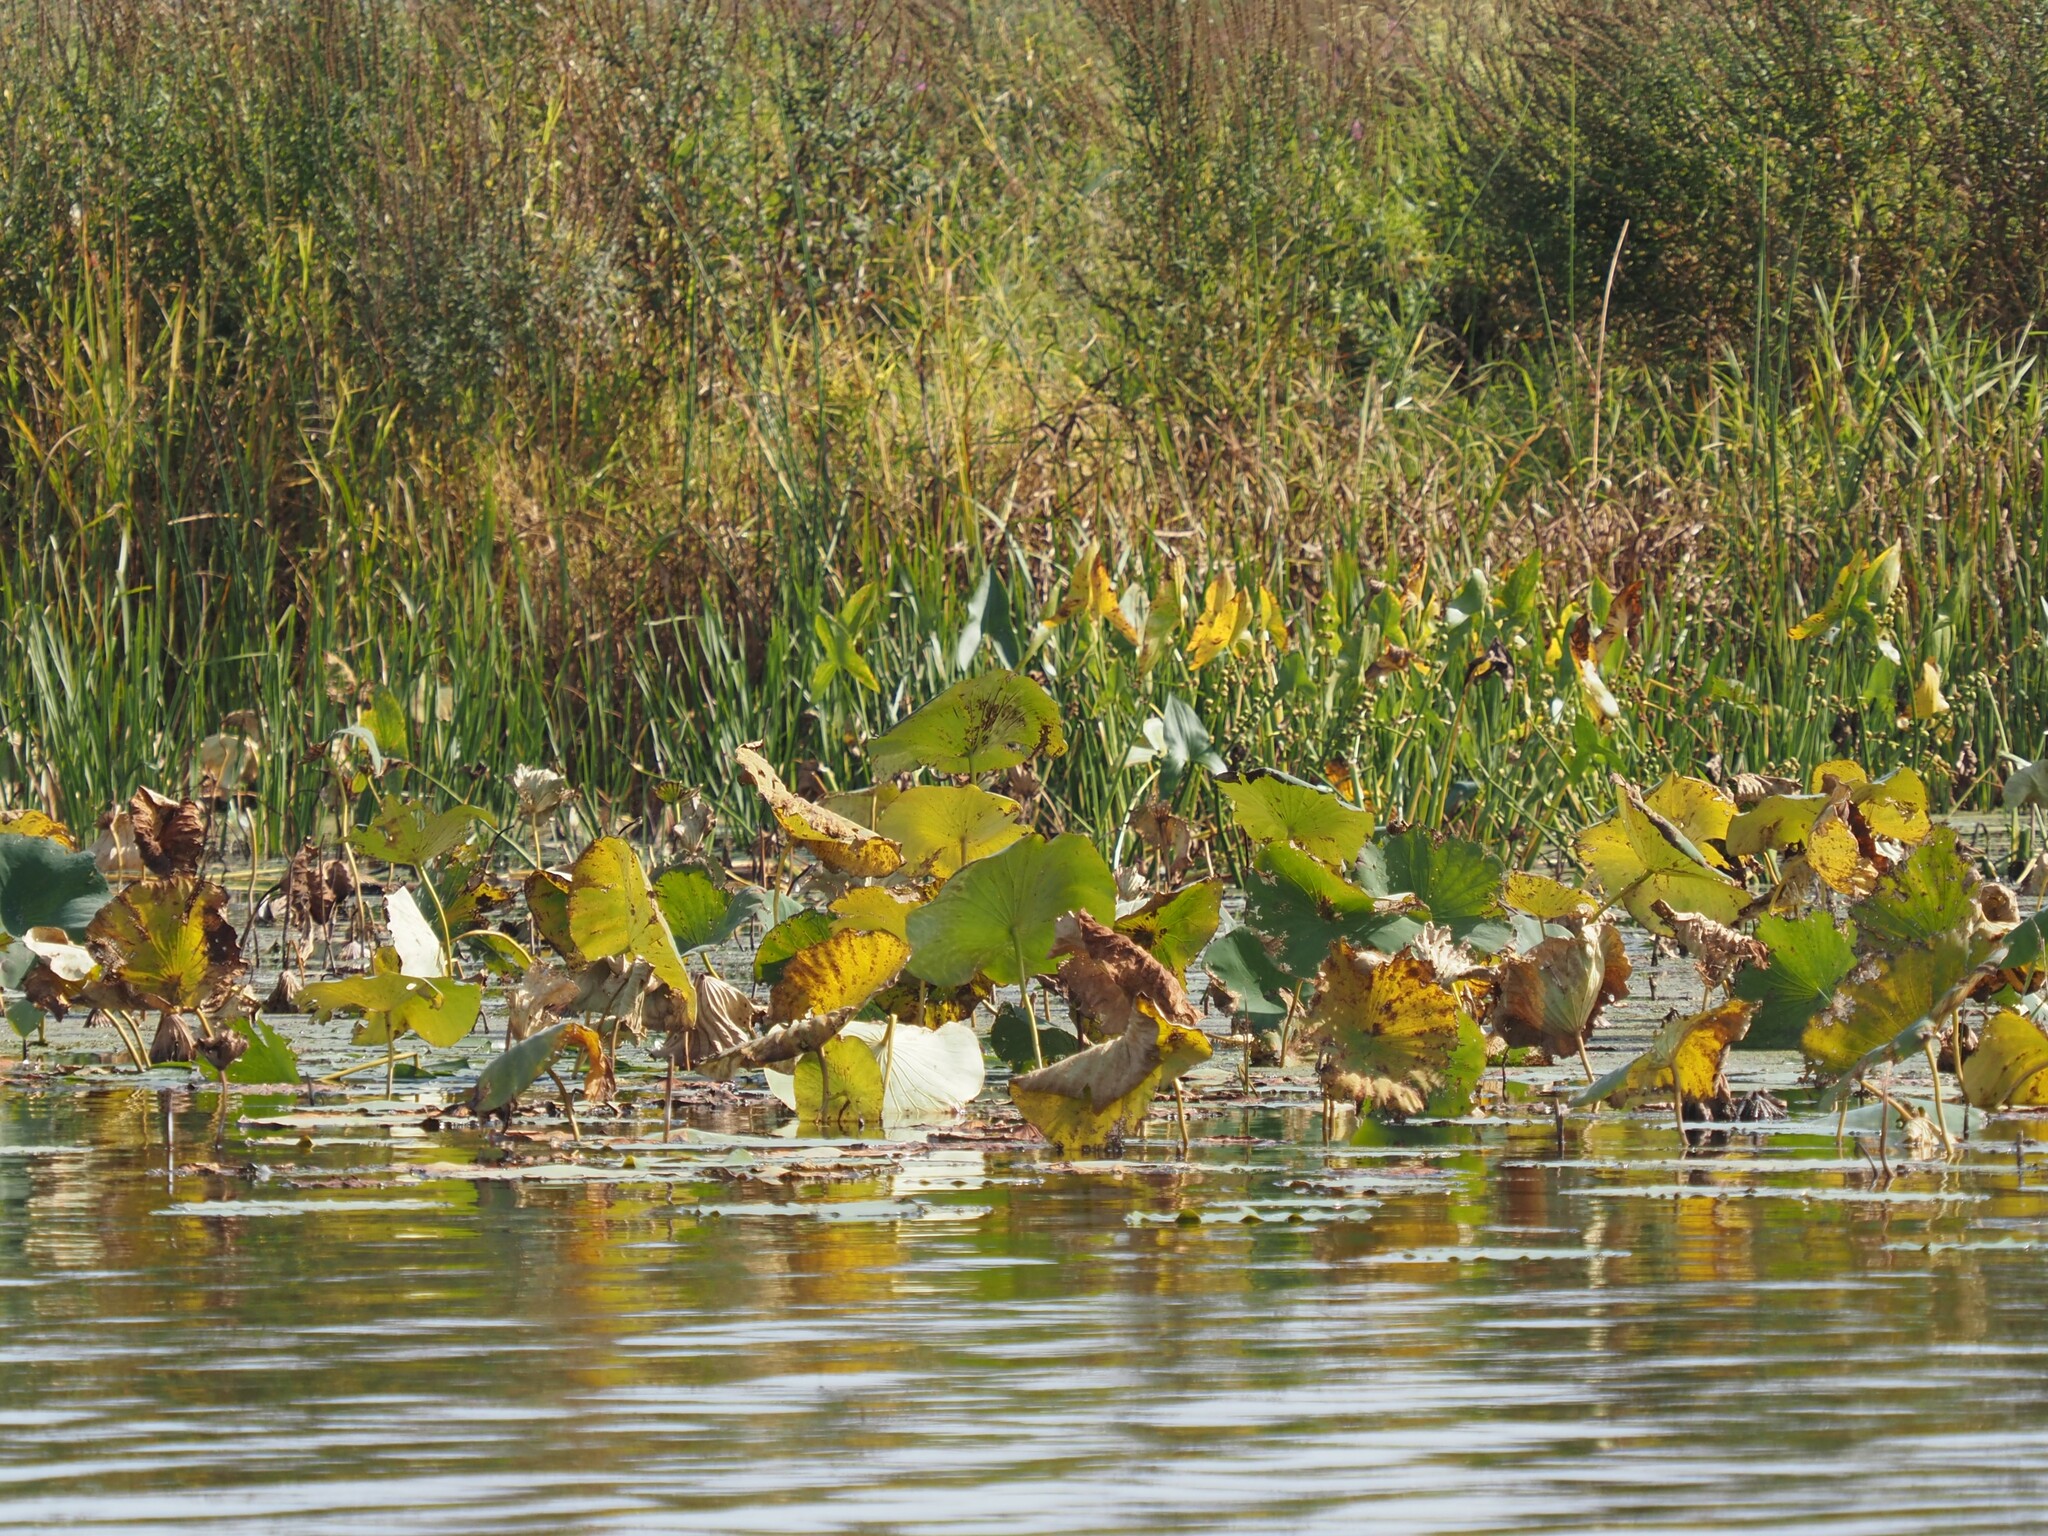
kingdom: Plantae
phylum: Tracheophyta
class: Magnoliopsida
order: Proteales
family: Nelumbonaceae
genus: Nelumbo
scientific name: Nelumbo lutea
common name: American lotus
